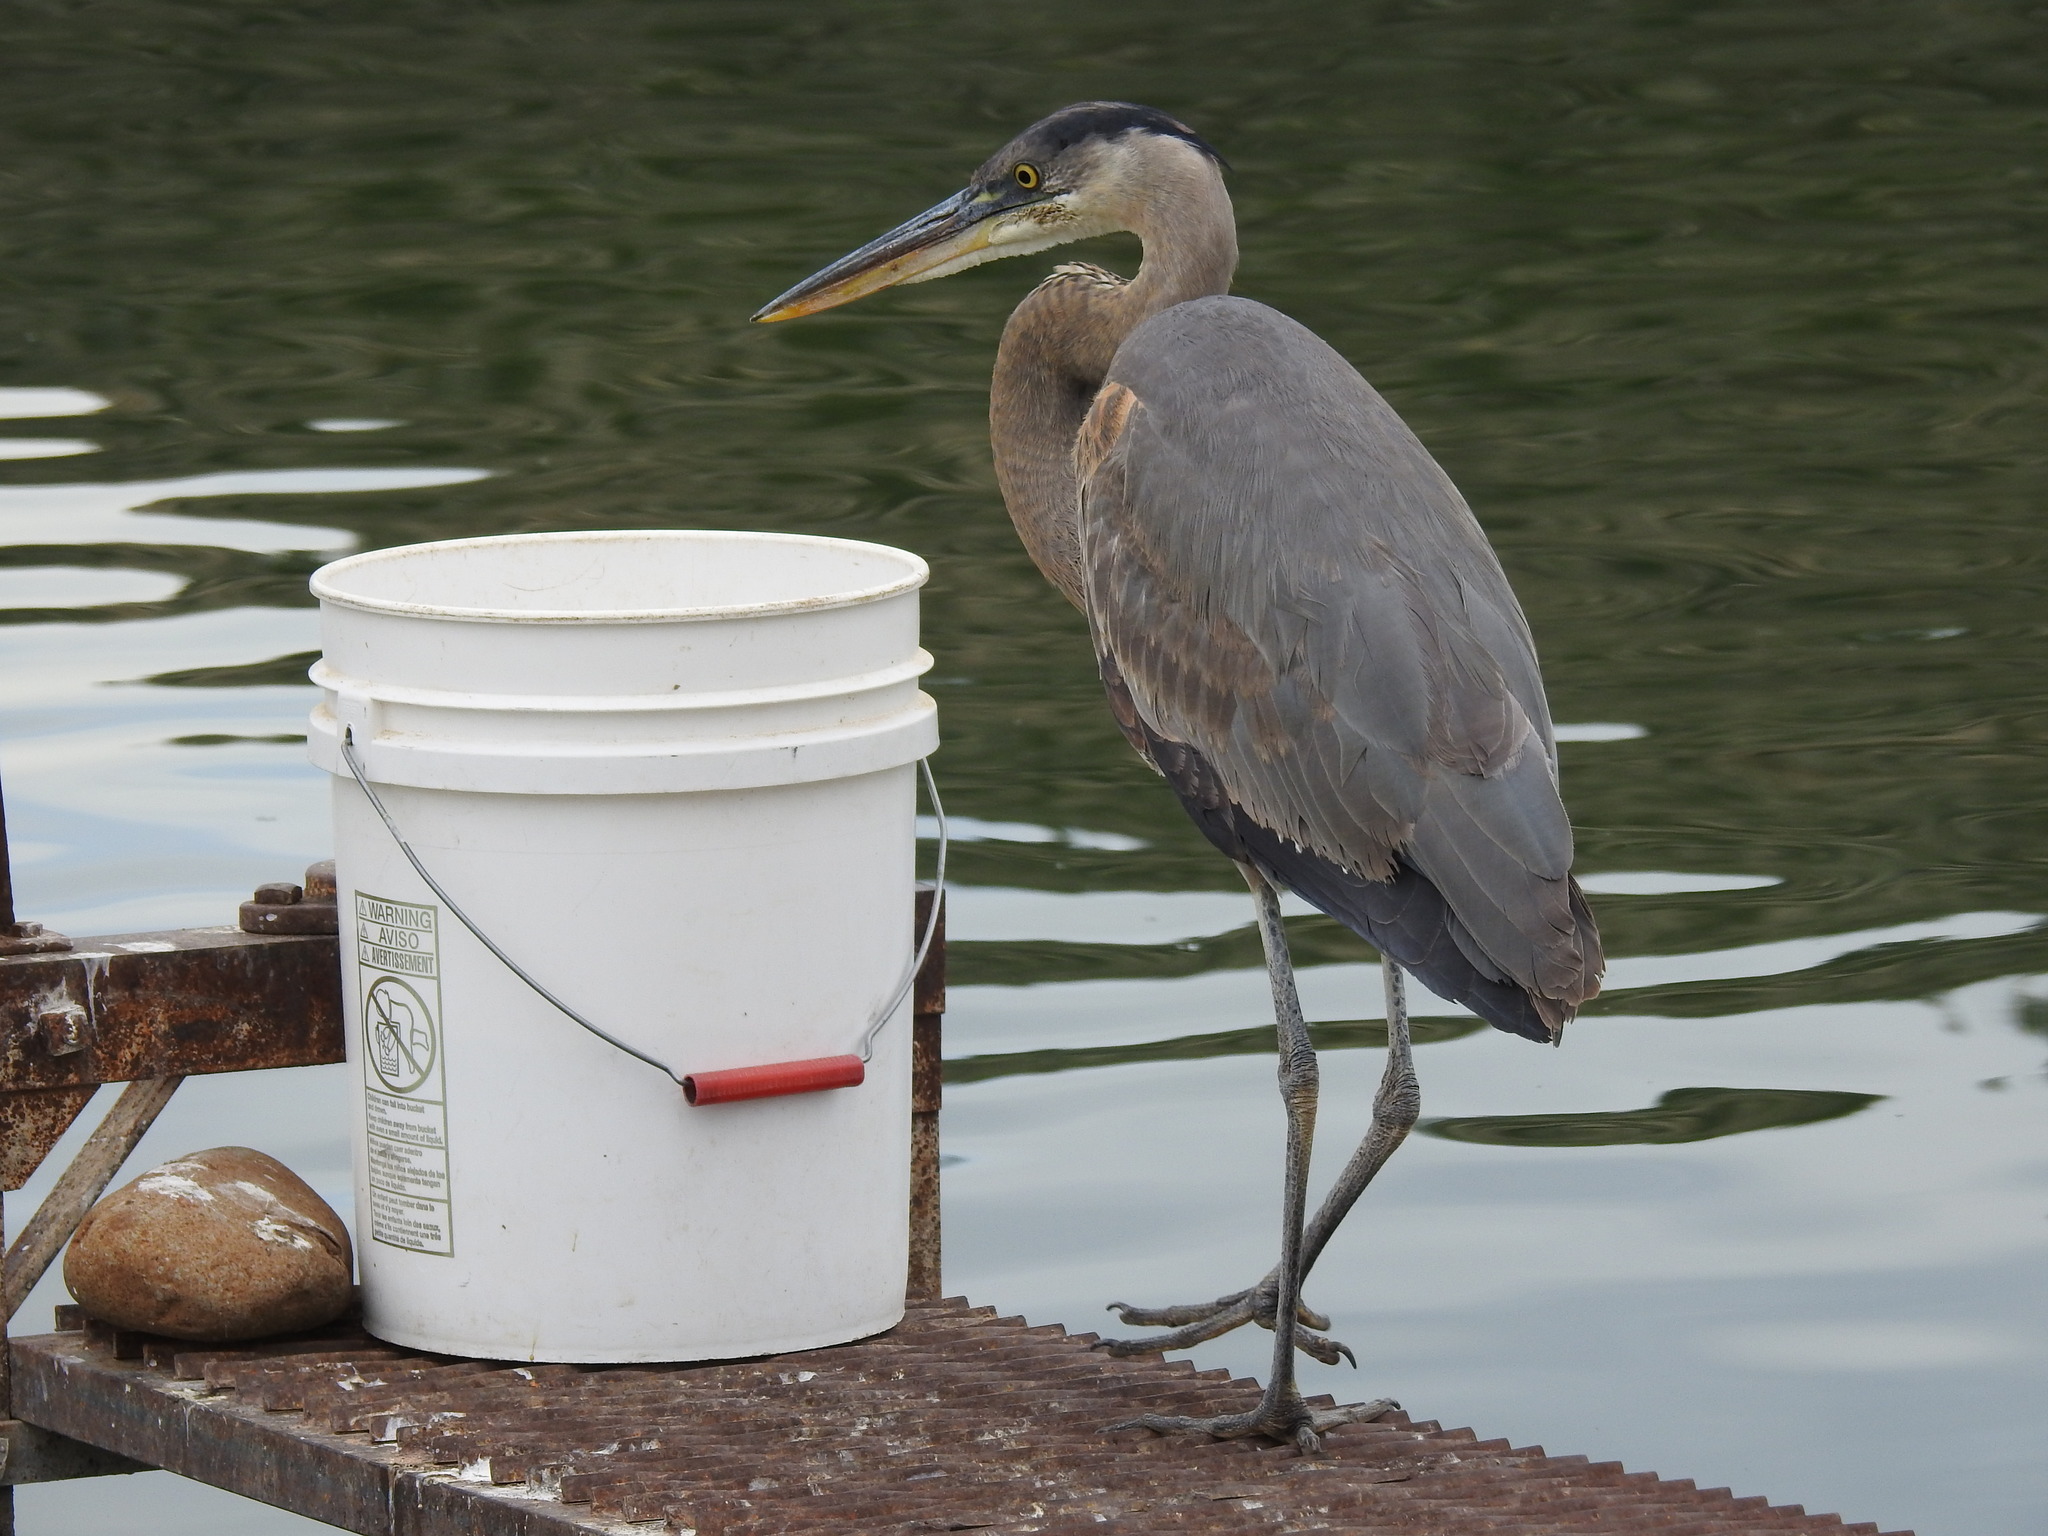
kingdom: Animalia
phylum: Chordata
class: Aves
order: Pelecaniformes
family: Ardeidae
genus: Ardea
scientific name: Ardea herodias
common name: Great blue heron
